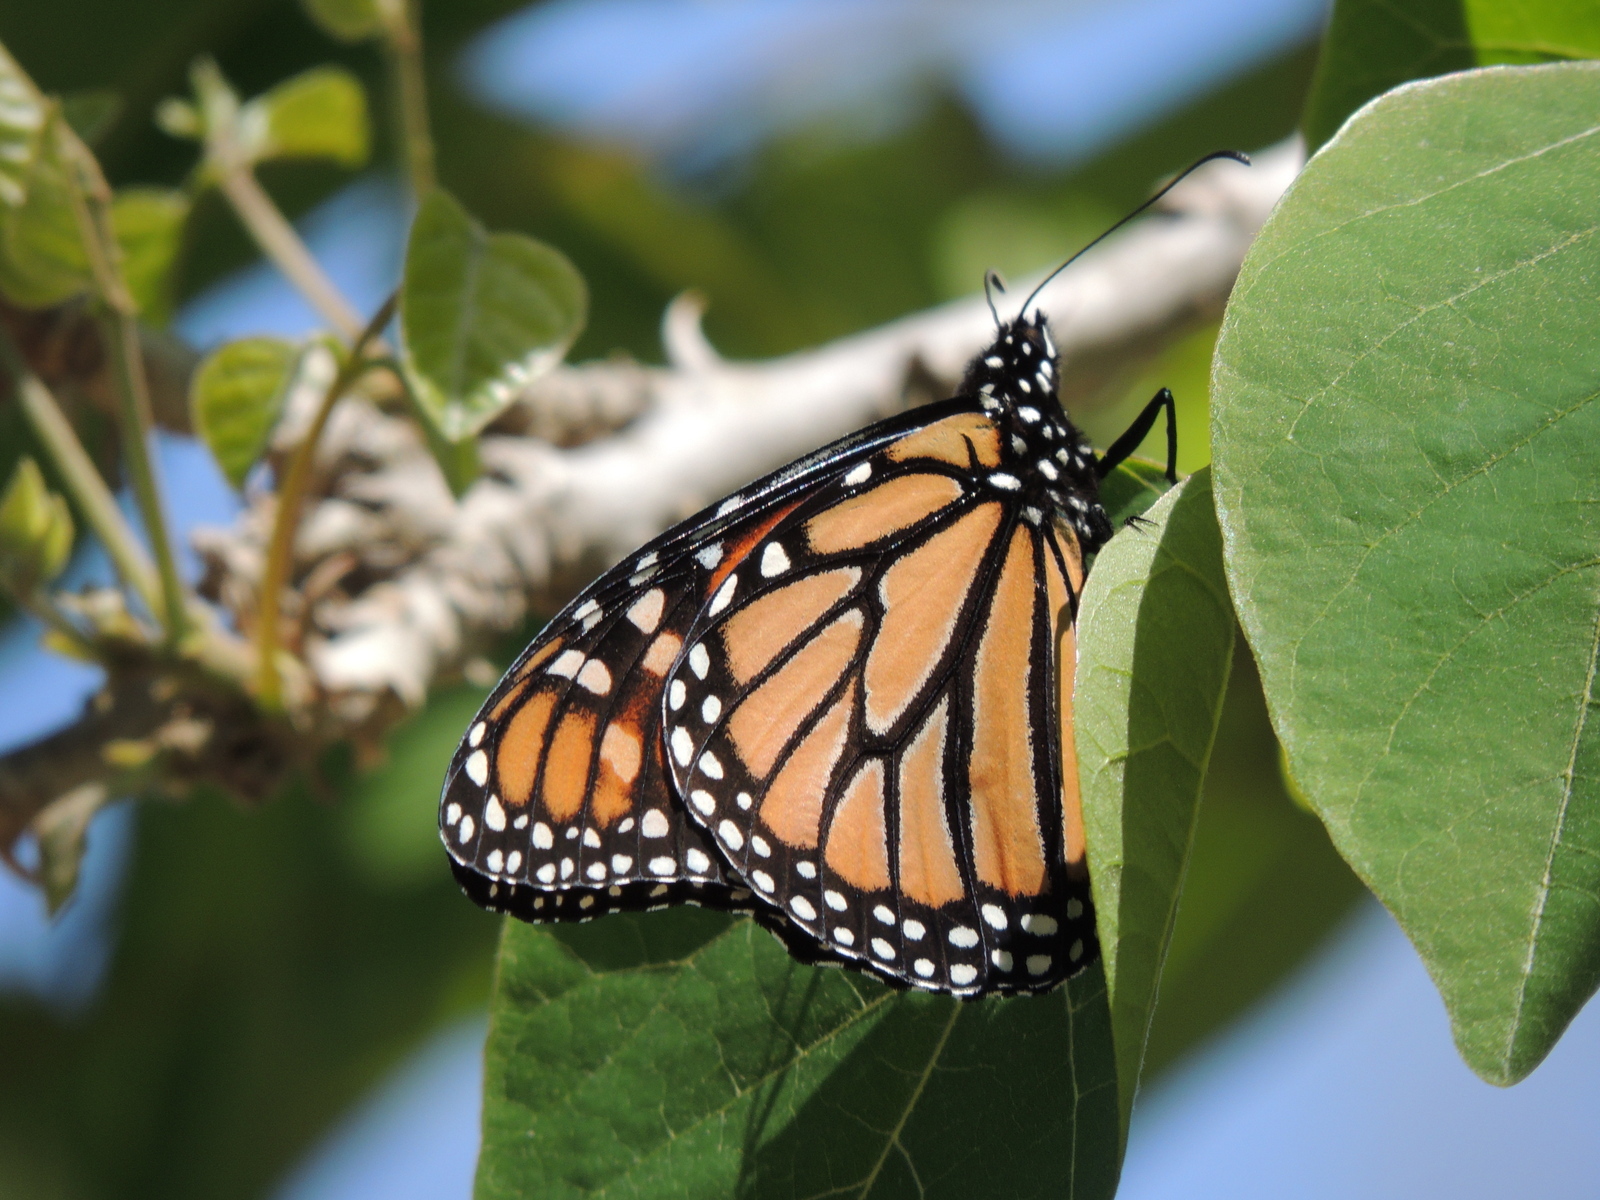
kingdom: Animalia
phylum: Arthropoda
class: Insecta
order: Lepidoptera
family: Nymphalidae
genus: Danaus
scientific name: Danaus plexippus
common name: Monarch
